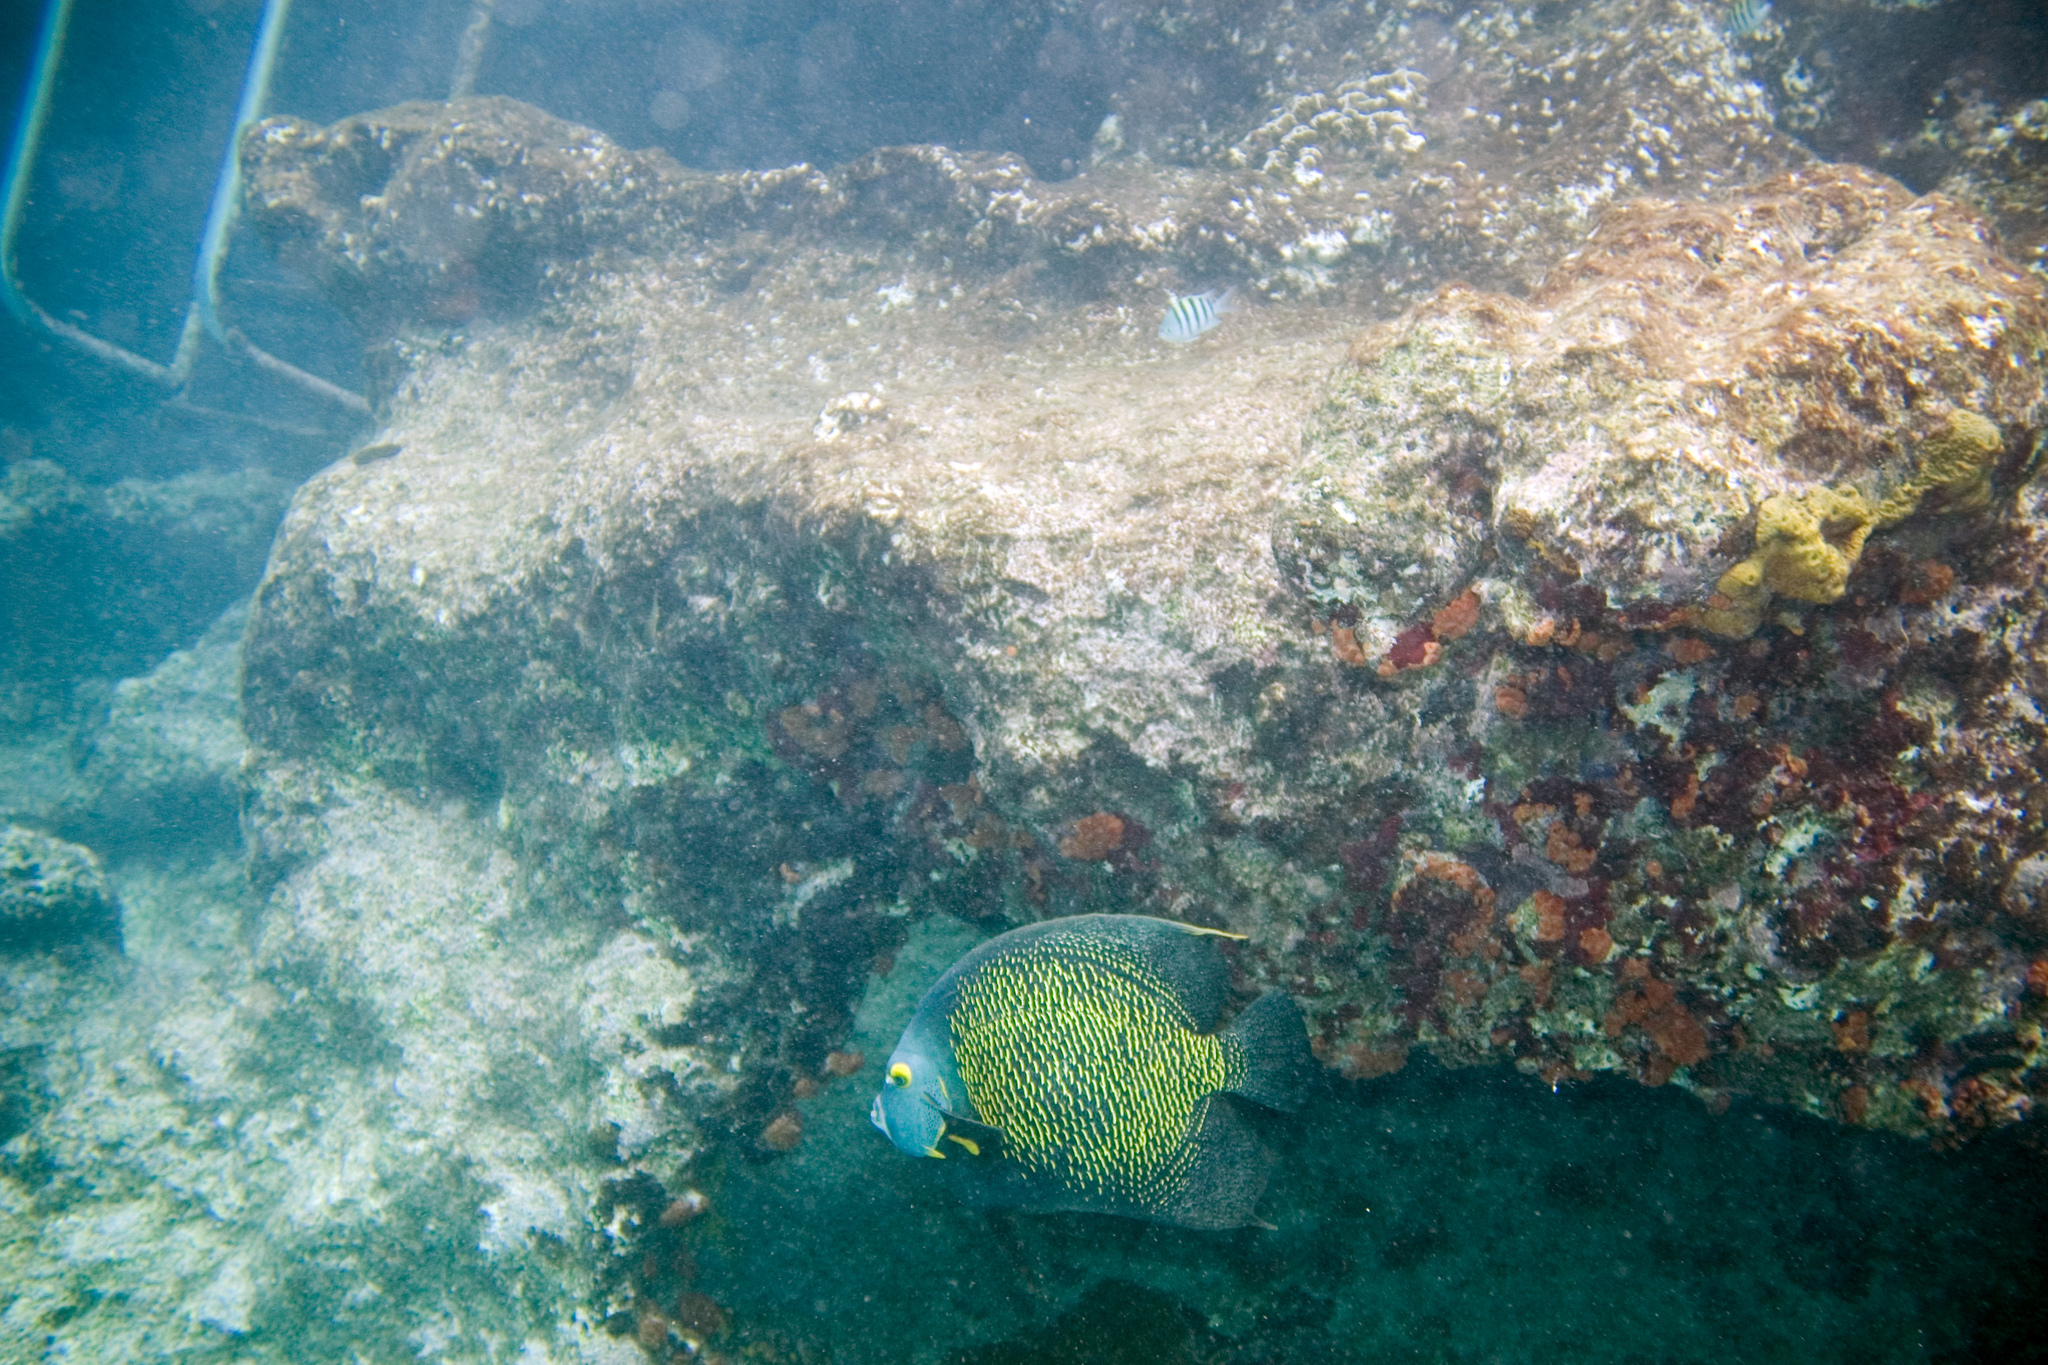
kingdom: Animalia
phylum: Chordata
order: Perciformes
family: Pomacanthidae
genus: Pomacanthus
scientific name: Pomacanthus paru
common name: French angelfish
